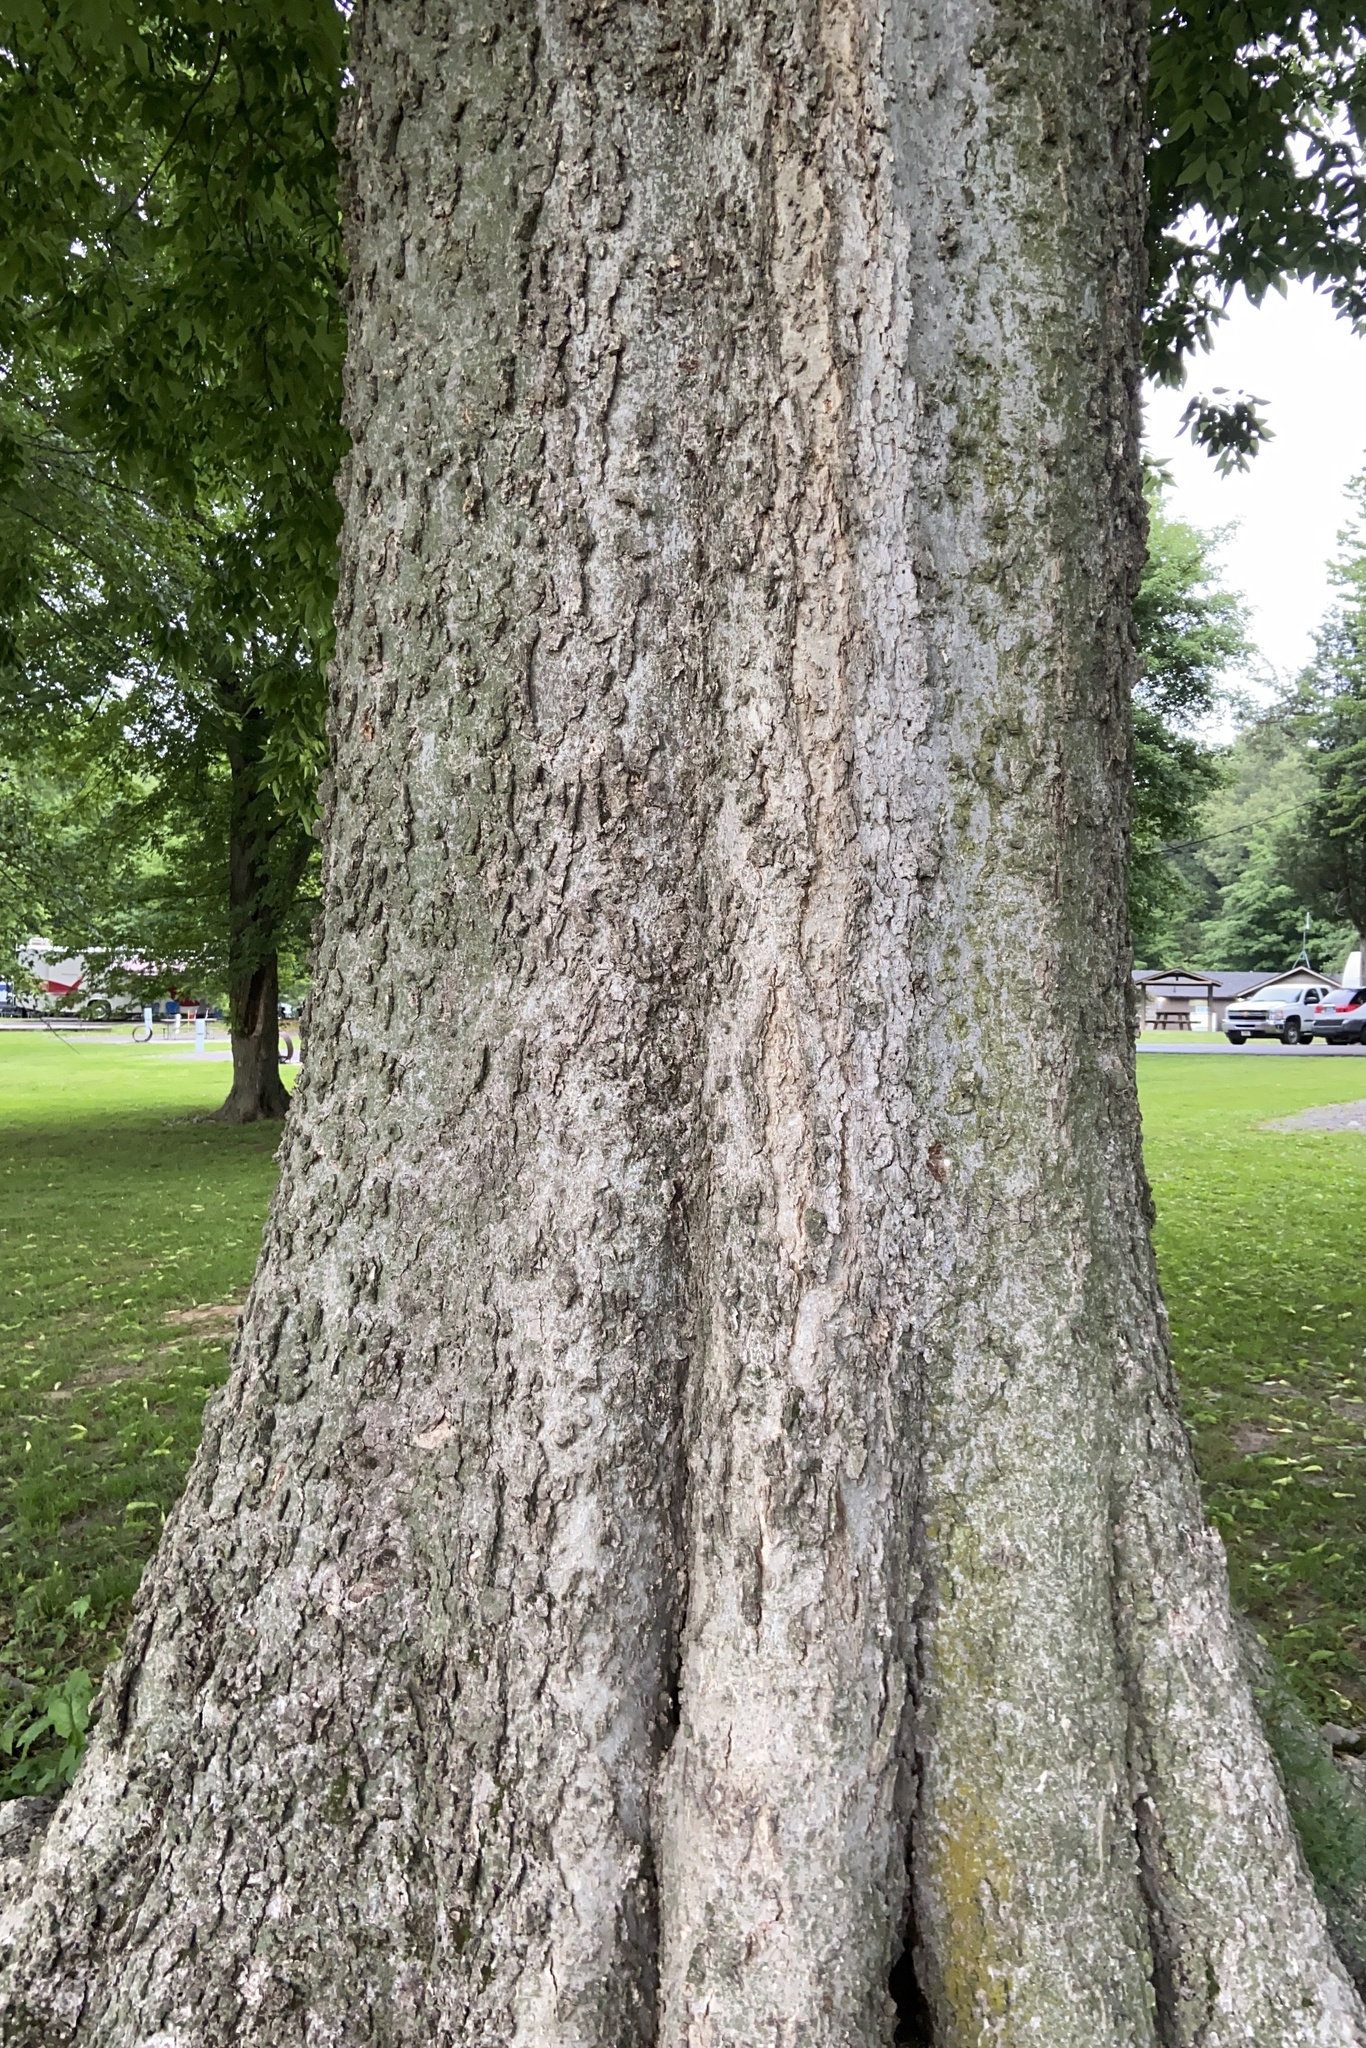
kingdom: Plantae
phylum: Tracheophyta
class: Magnoliopsida
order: Rosales
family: Cannabaceae
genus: Celtis
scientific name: Celtis laevigata
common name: Sugarberry
